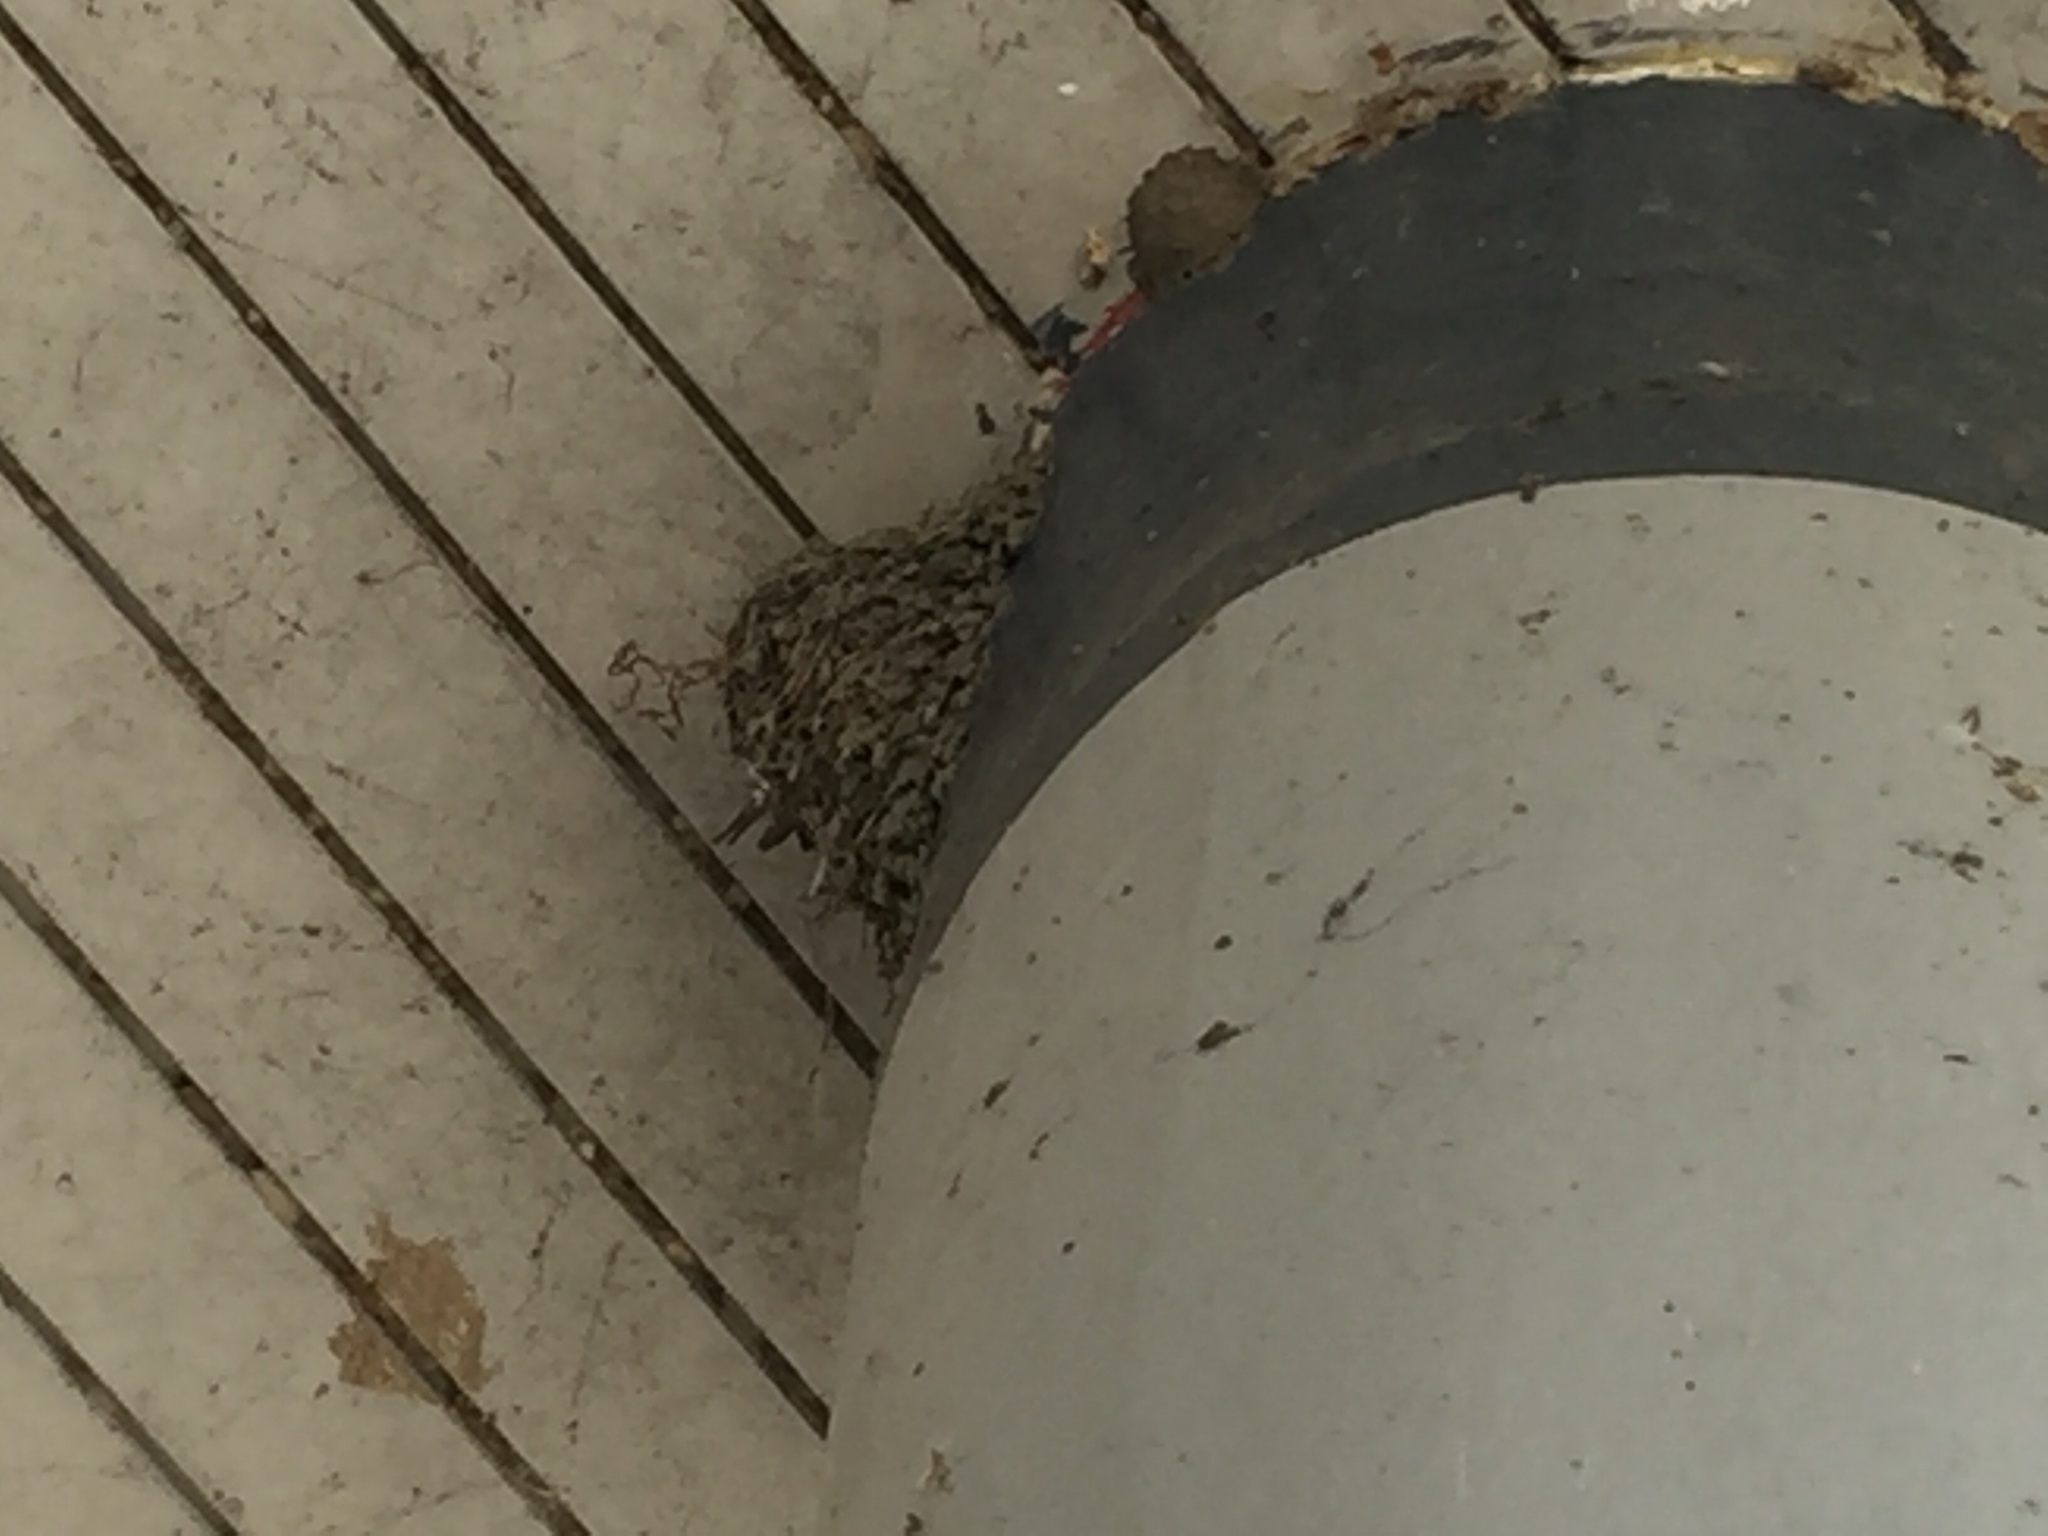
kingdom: Animalia
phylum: Chordata
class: Aves
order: Passeriformes
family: Hirundinidae
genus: Hirundo
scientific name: Hirundo rustica
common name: Barn swallow
